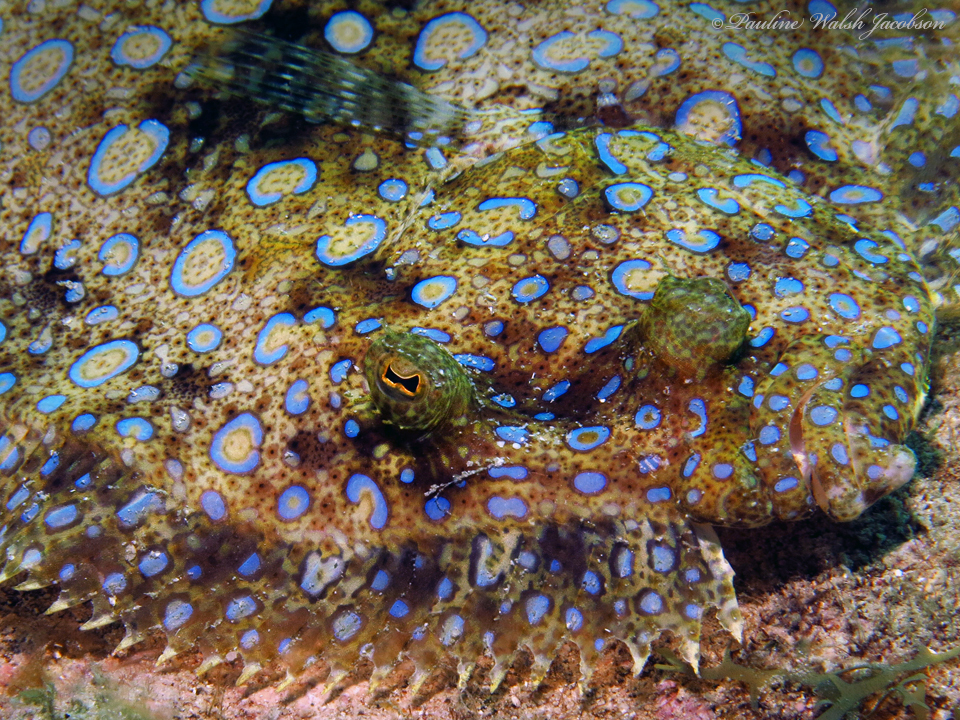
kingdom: Animalia
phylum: Chordata
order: Pleuronectiformes
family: Bothidae
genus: Bothus
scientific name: Bothus lunatus
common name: Peacock flounder
